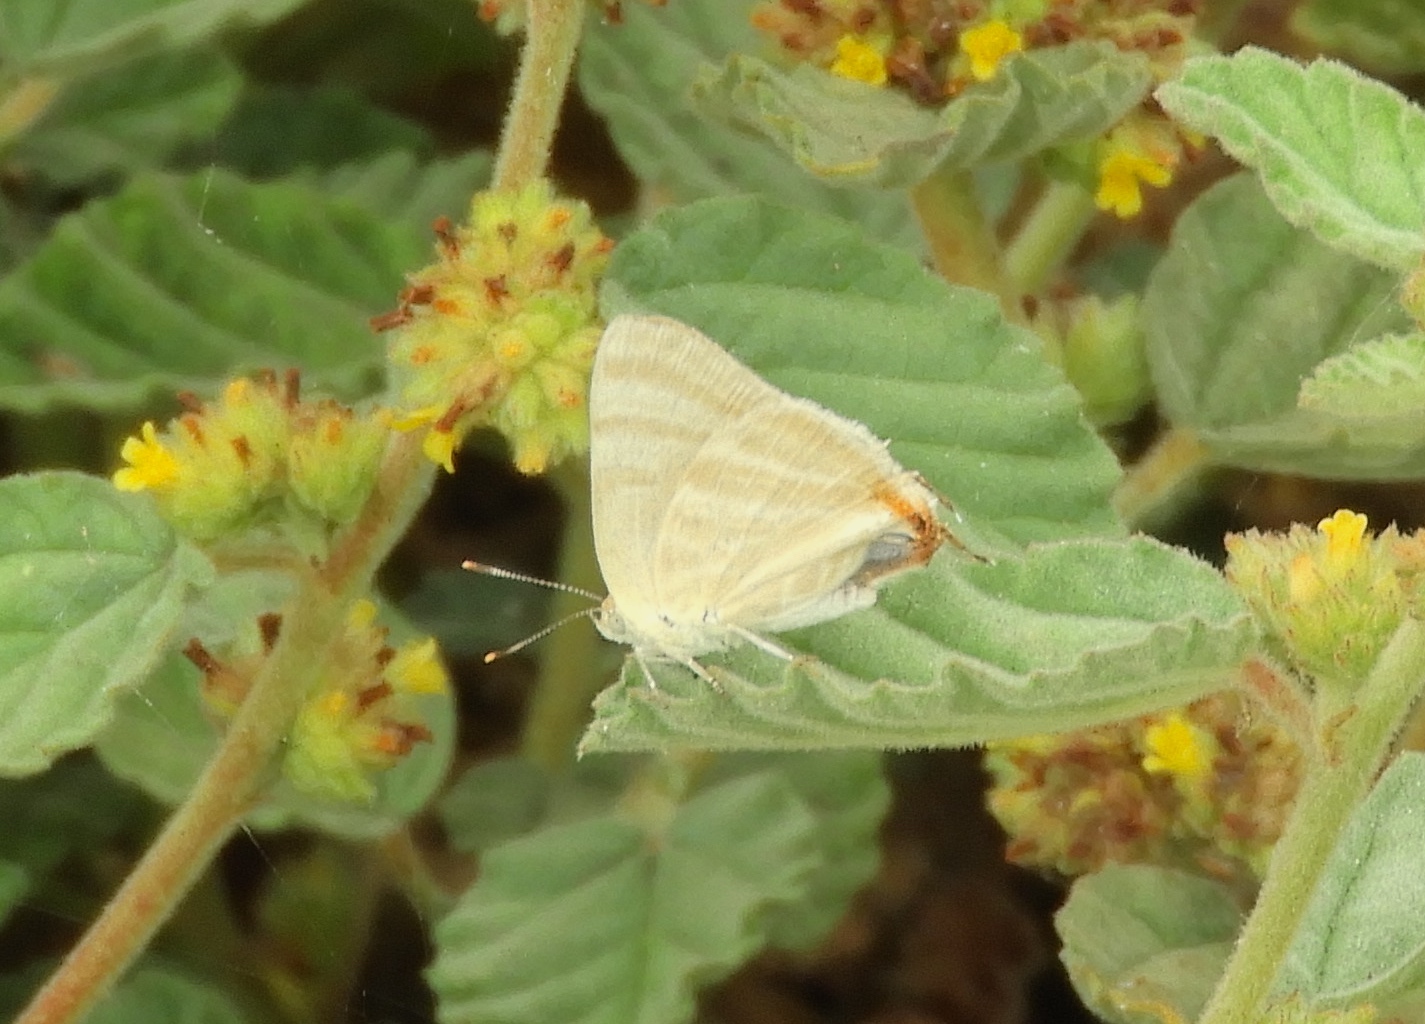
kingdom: Animalia
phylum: Arthropoda
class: Insecta
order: Lepidoptera
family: Lycaenidae
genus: Dolymorpha
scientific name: Dolymorpha jada
